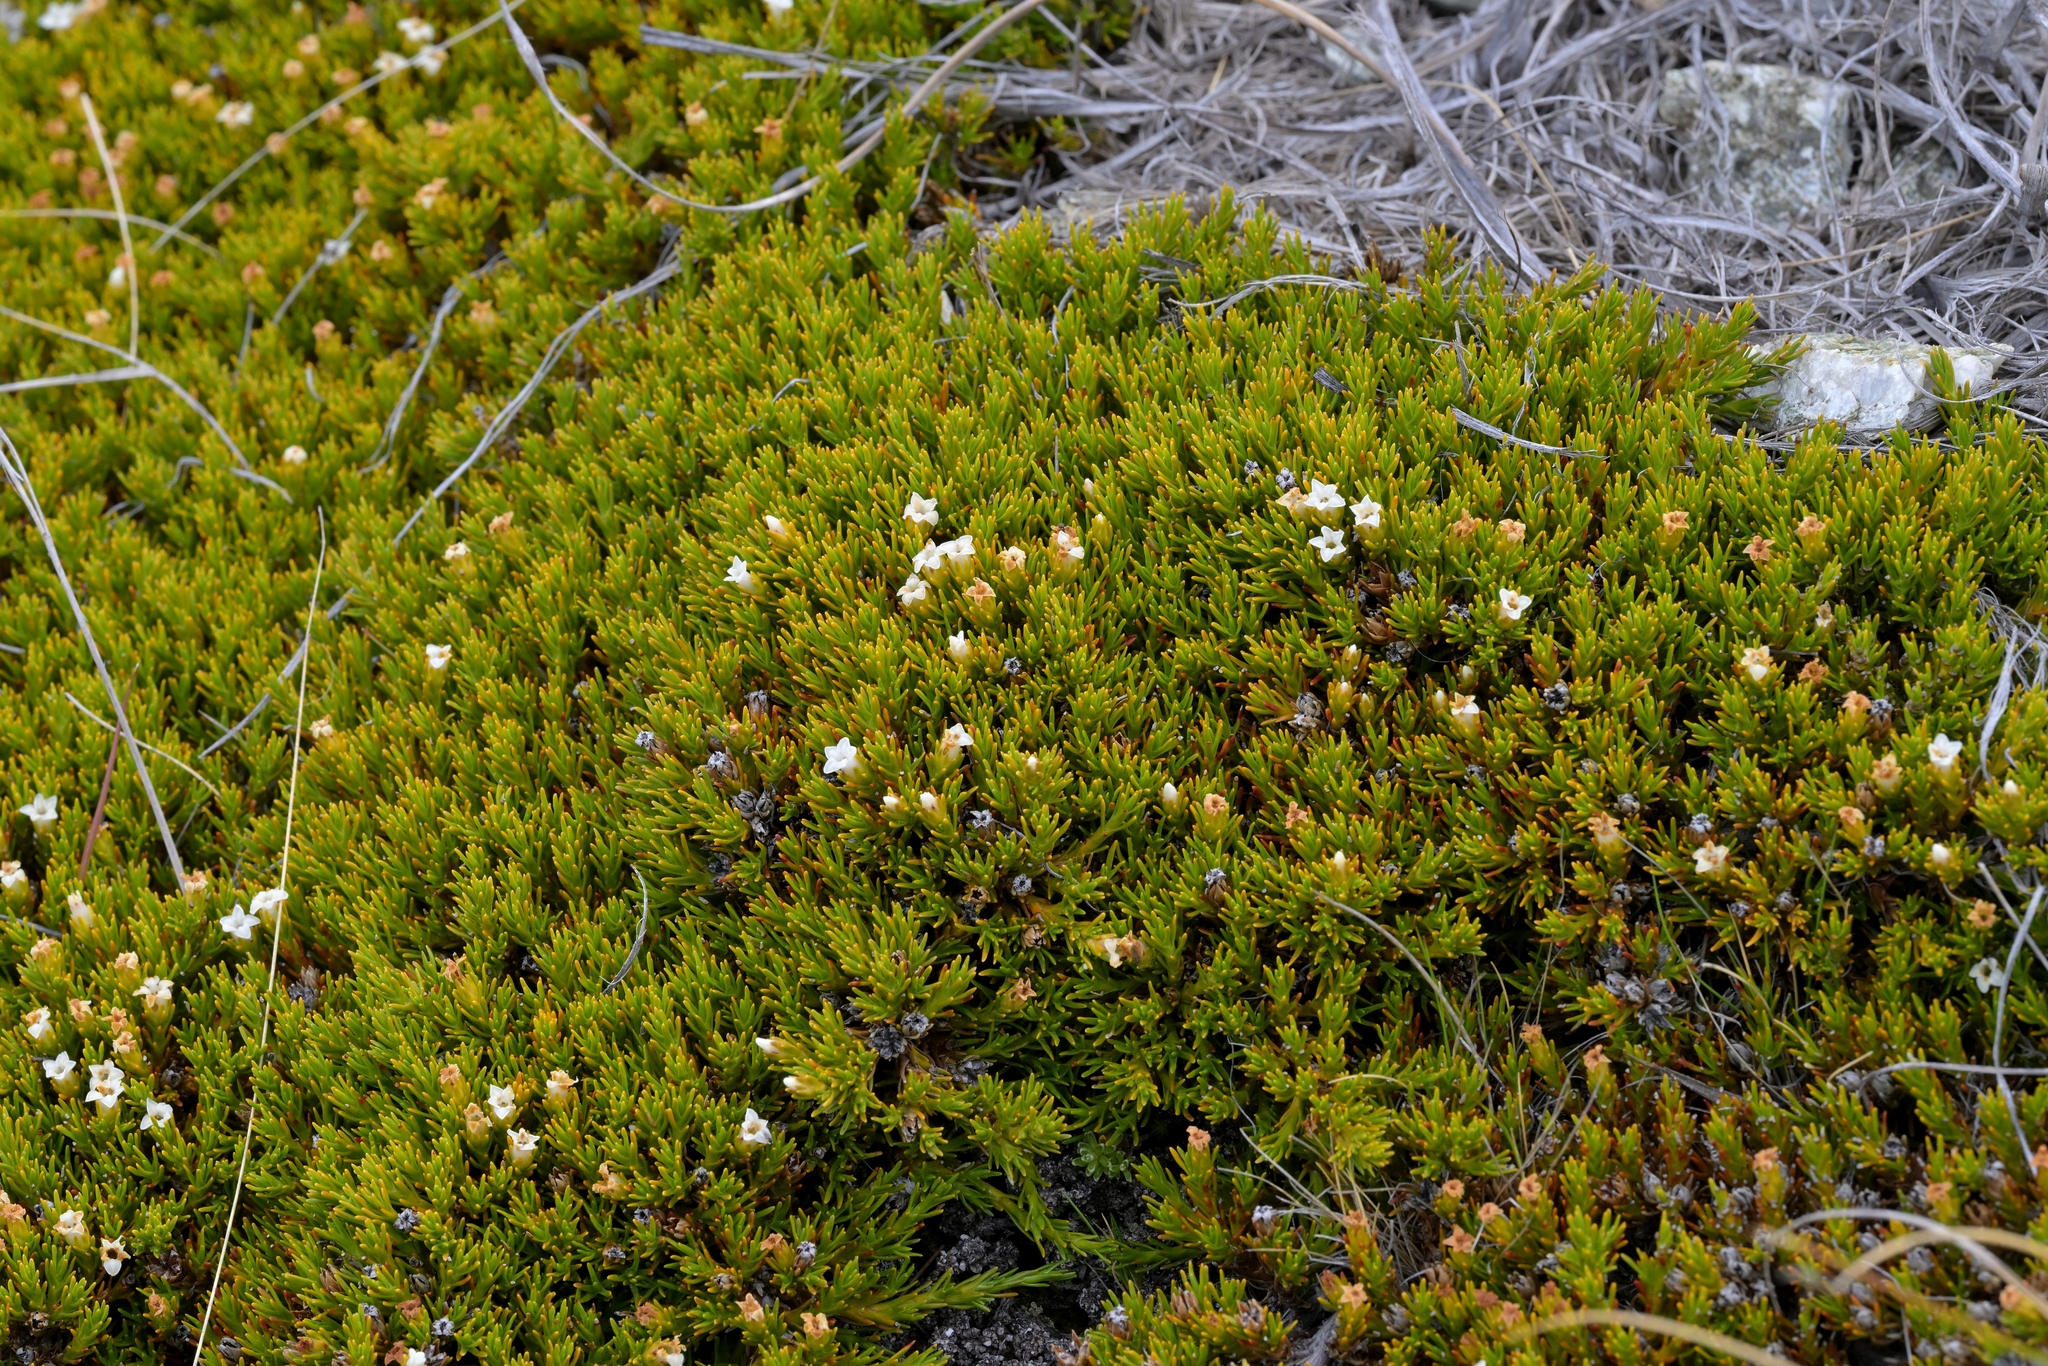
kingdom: Plantae
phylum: Tracheophyta
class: Magnoliopsida
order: Ericales
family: Ericaceae
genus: Dracophyllum
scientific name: Dracophyllum muscoides
